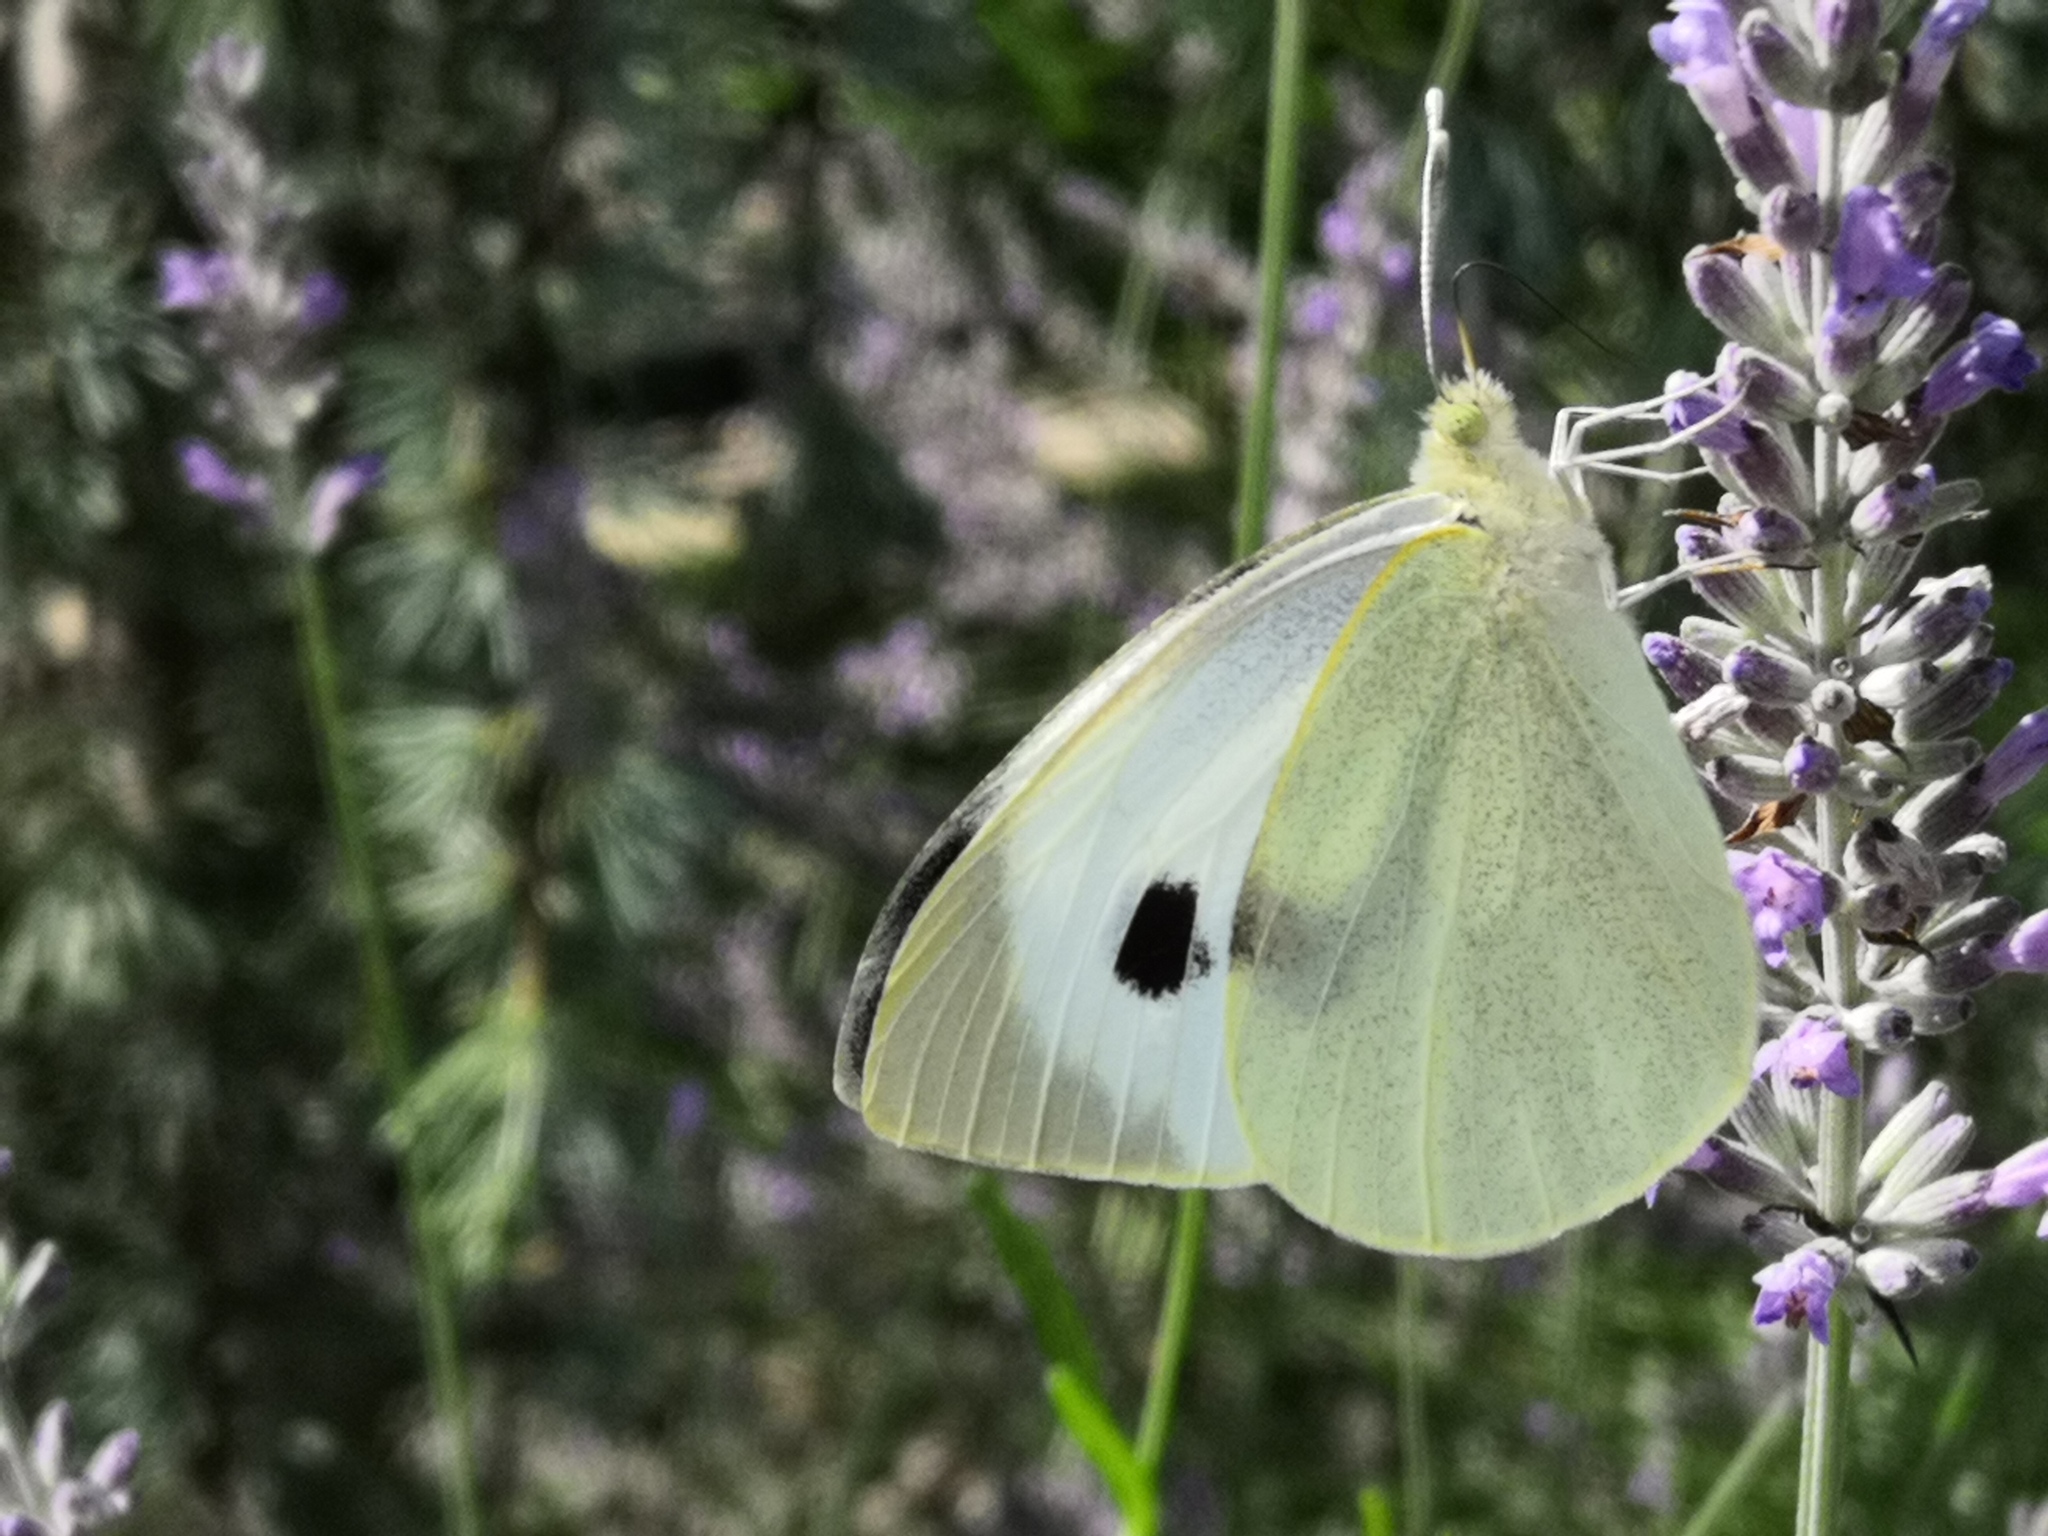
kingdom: Animalia
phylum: Arthropoda
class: Insecta
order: Lepidoptera
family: Pieridae
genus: Pieris
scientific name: Pieris brassicae
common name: Large white
